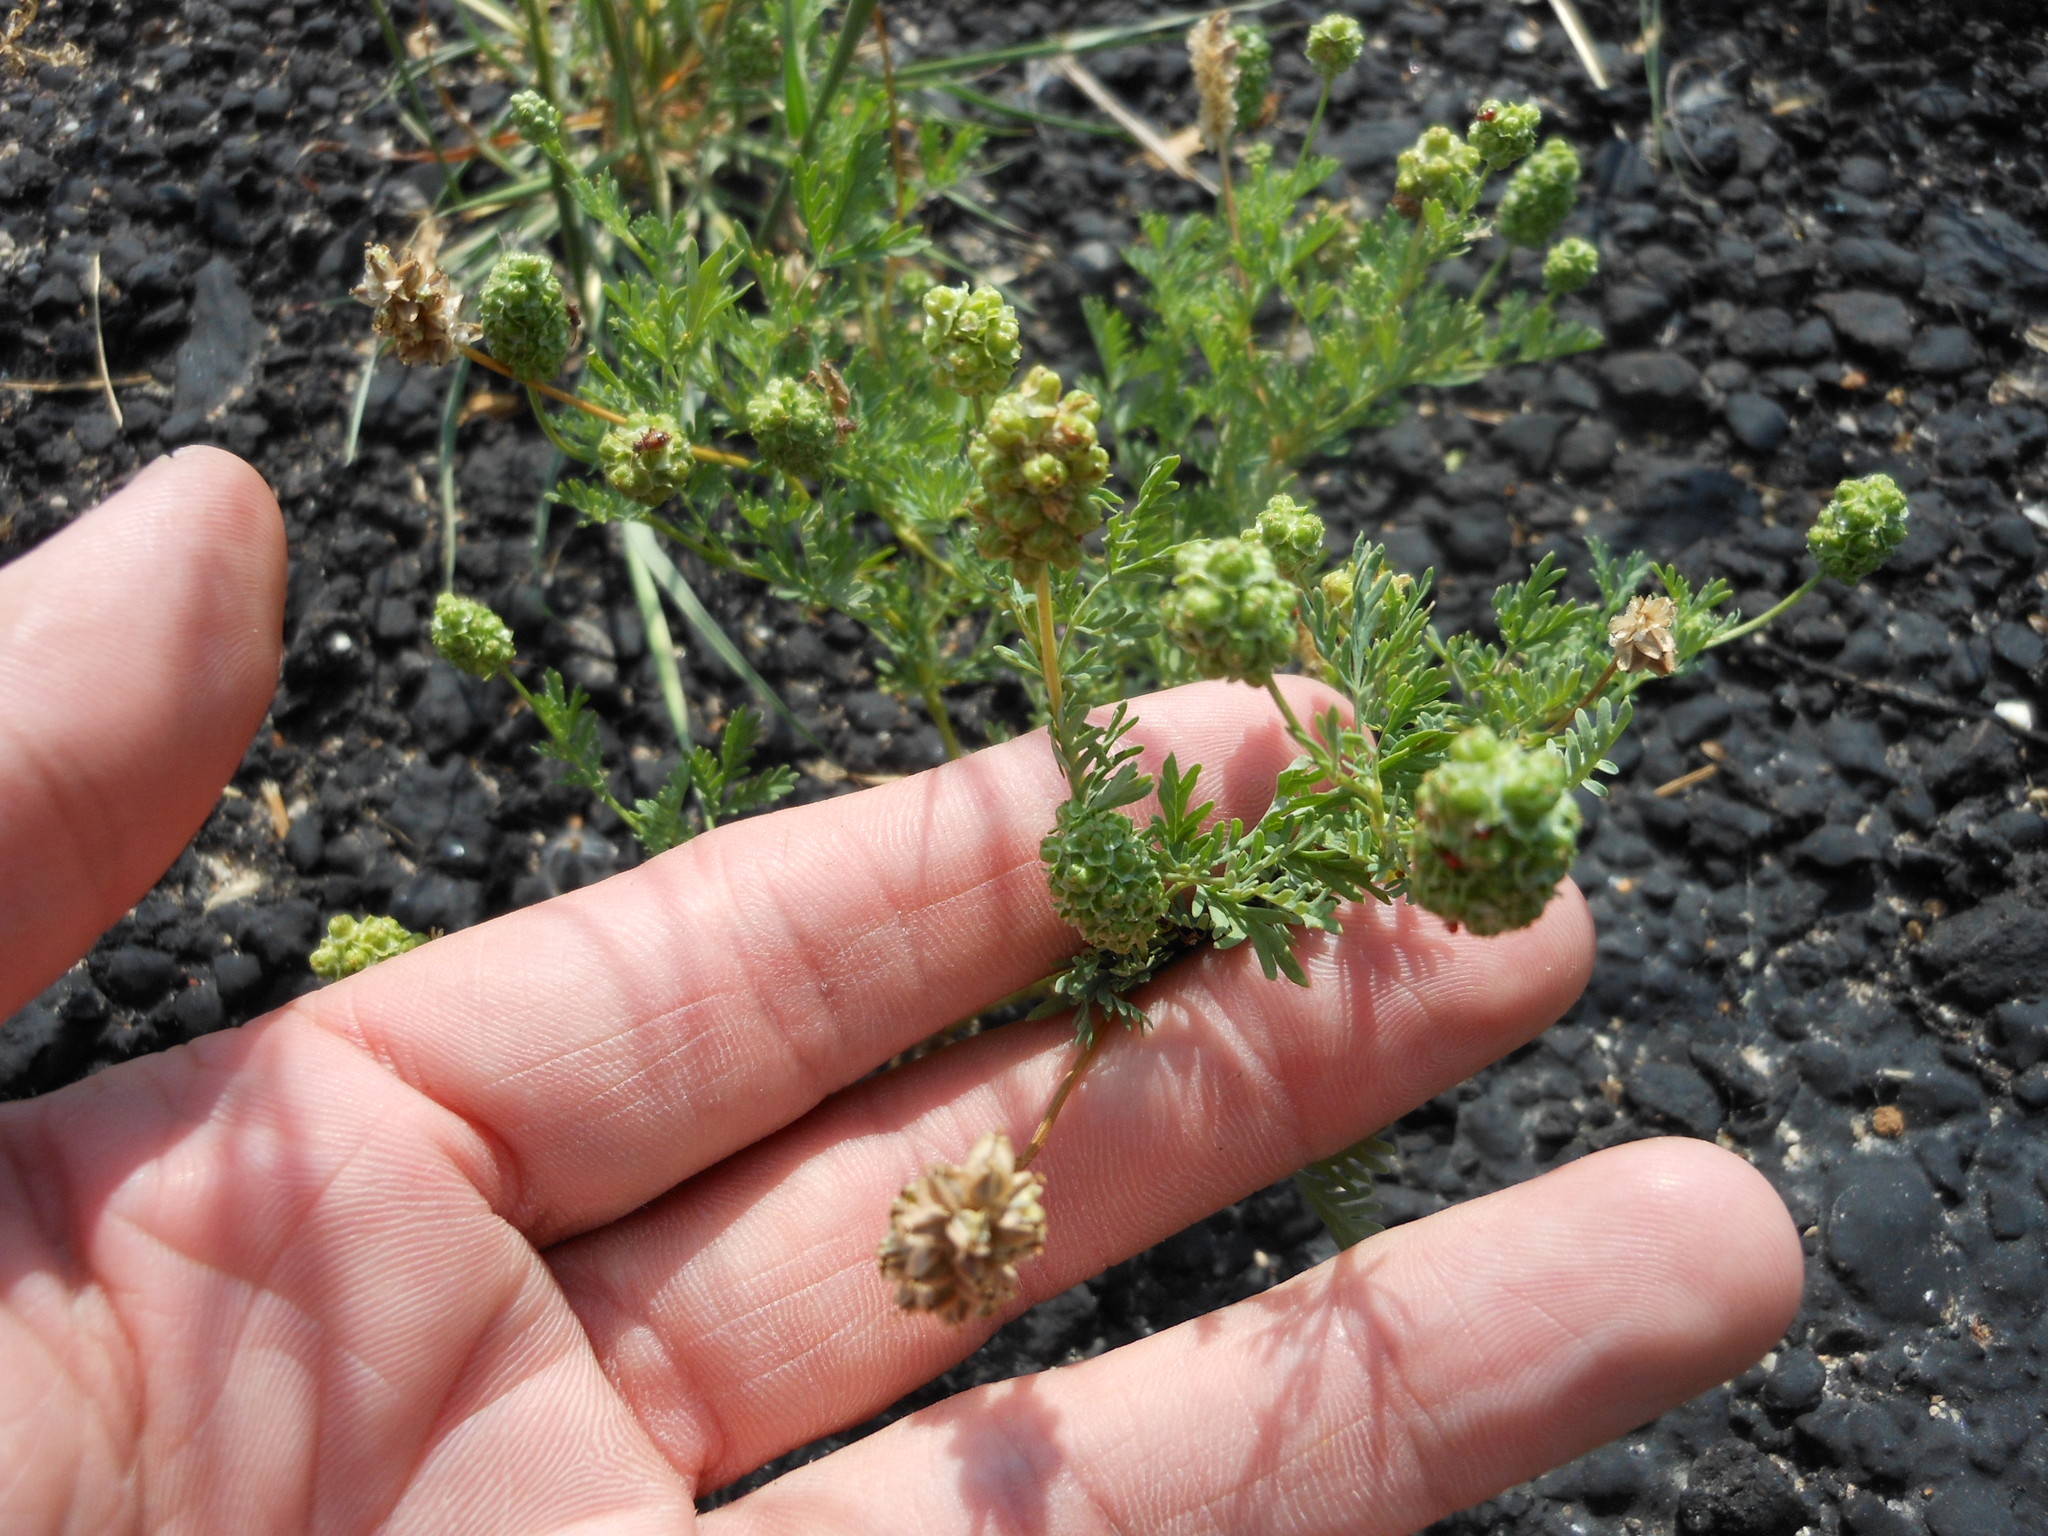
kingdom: Plantae
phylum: Tracheophyta
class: Magnoliopsida
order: Rosales
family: Rosaceae
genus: Poteridium
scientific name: Poteridium annuum
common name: Annual burnet
